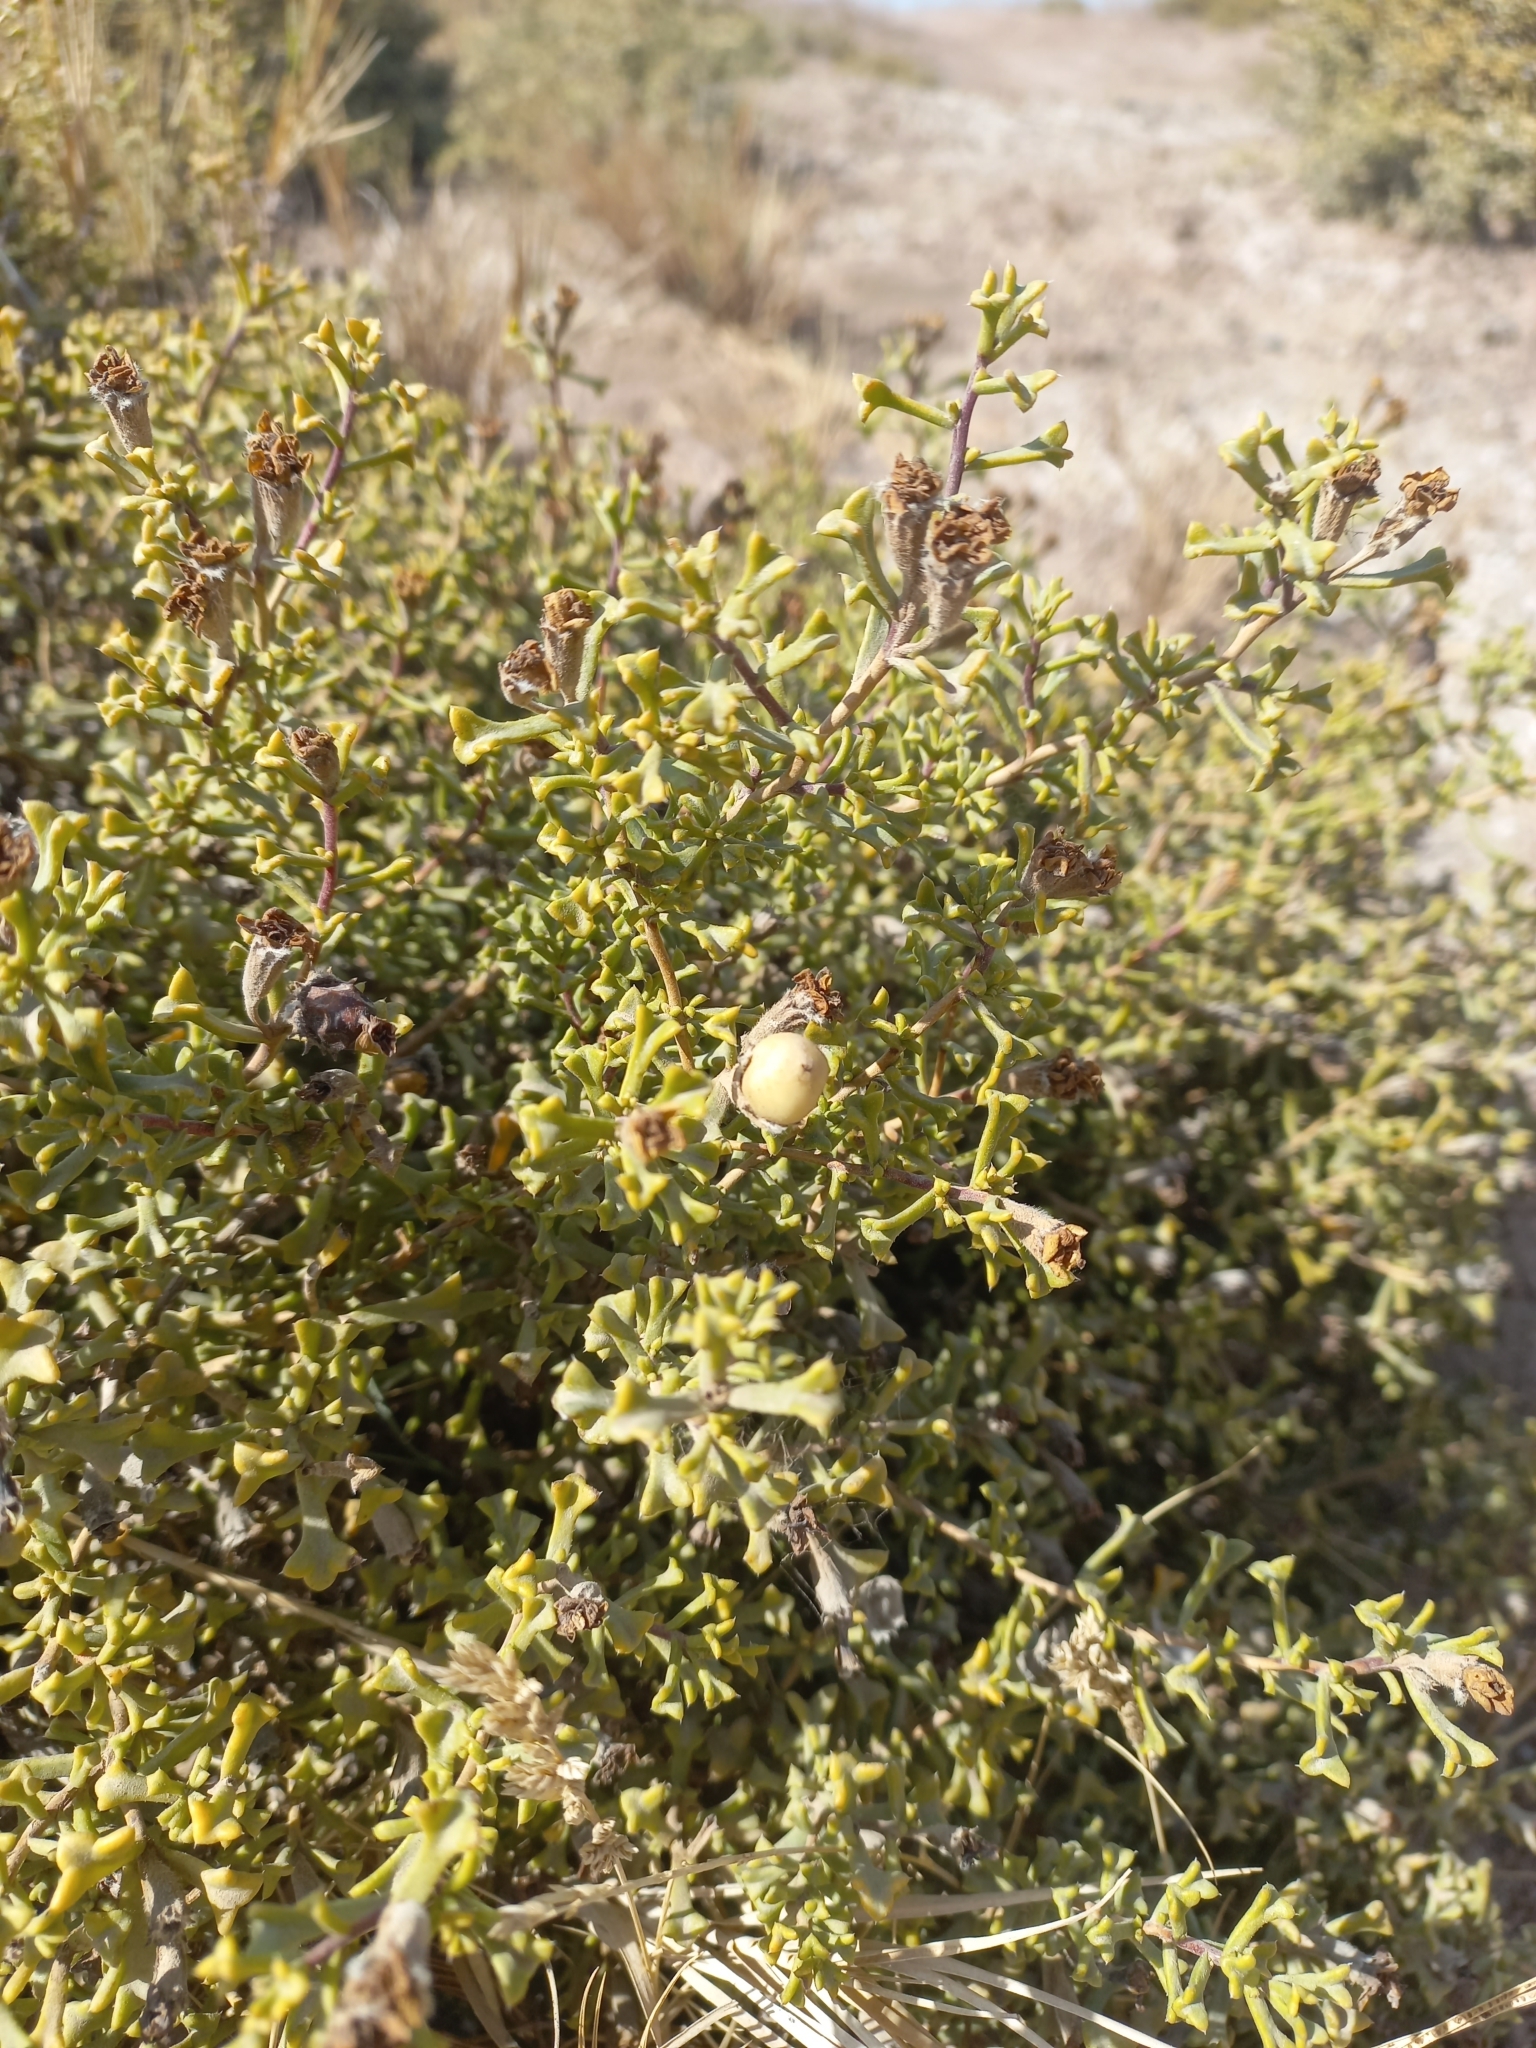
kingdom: Plantae
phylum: Tracheophyta
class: Magnoliopsida
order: Boraginales
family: Ehretiaceae
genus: Ehretia
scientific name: Ehretia cortesia
